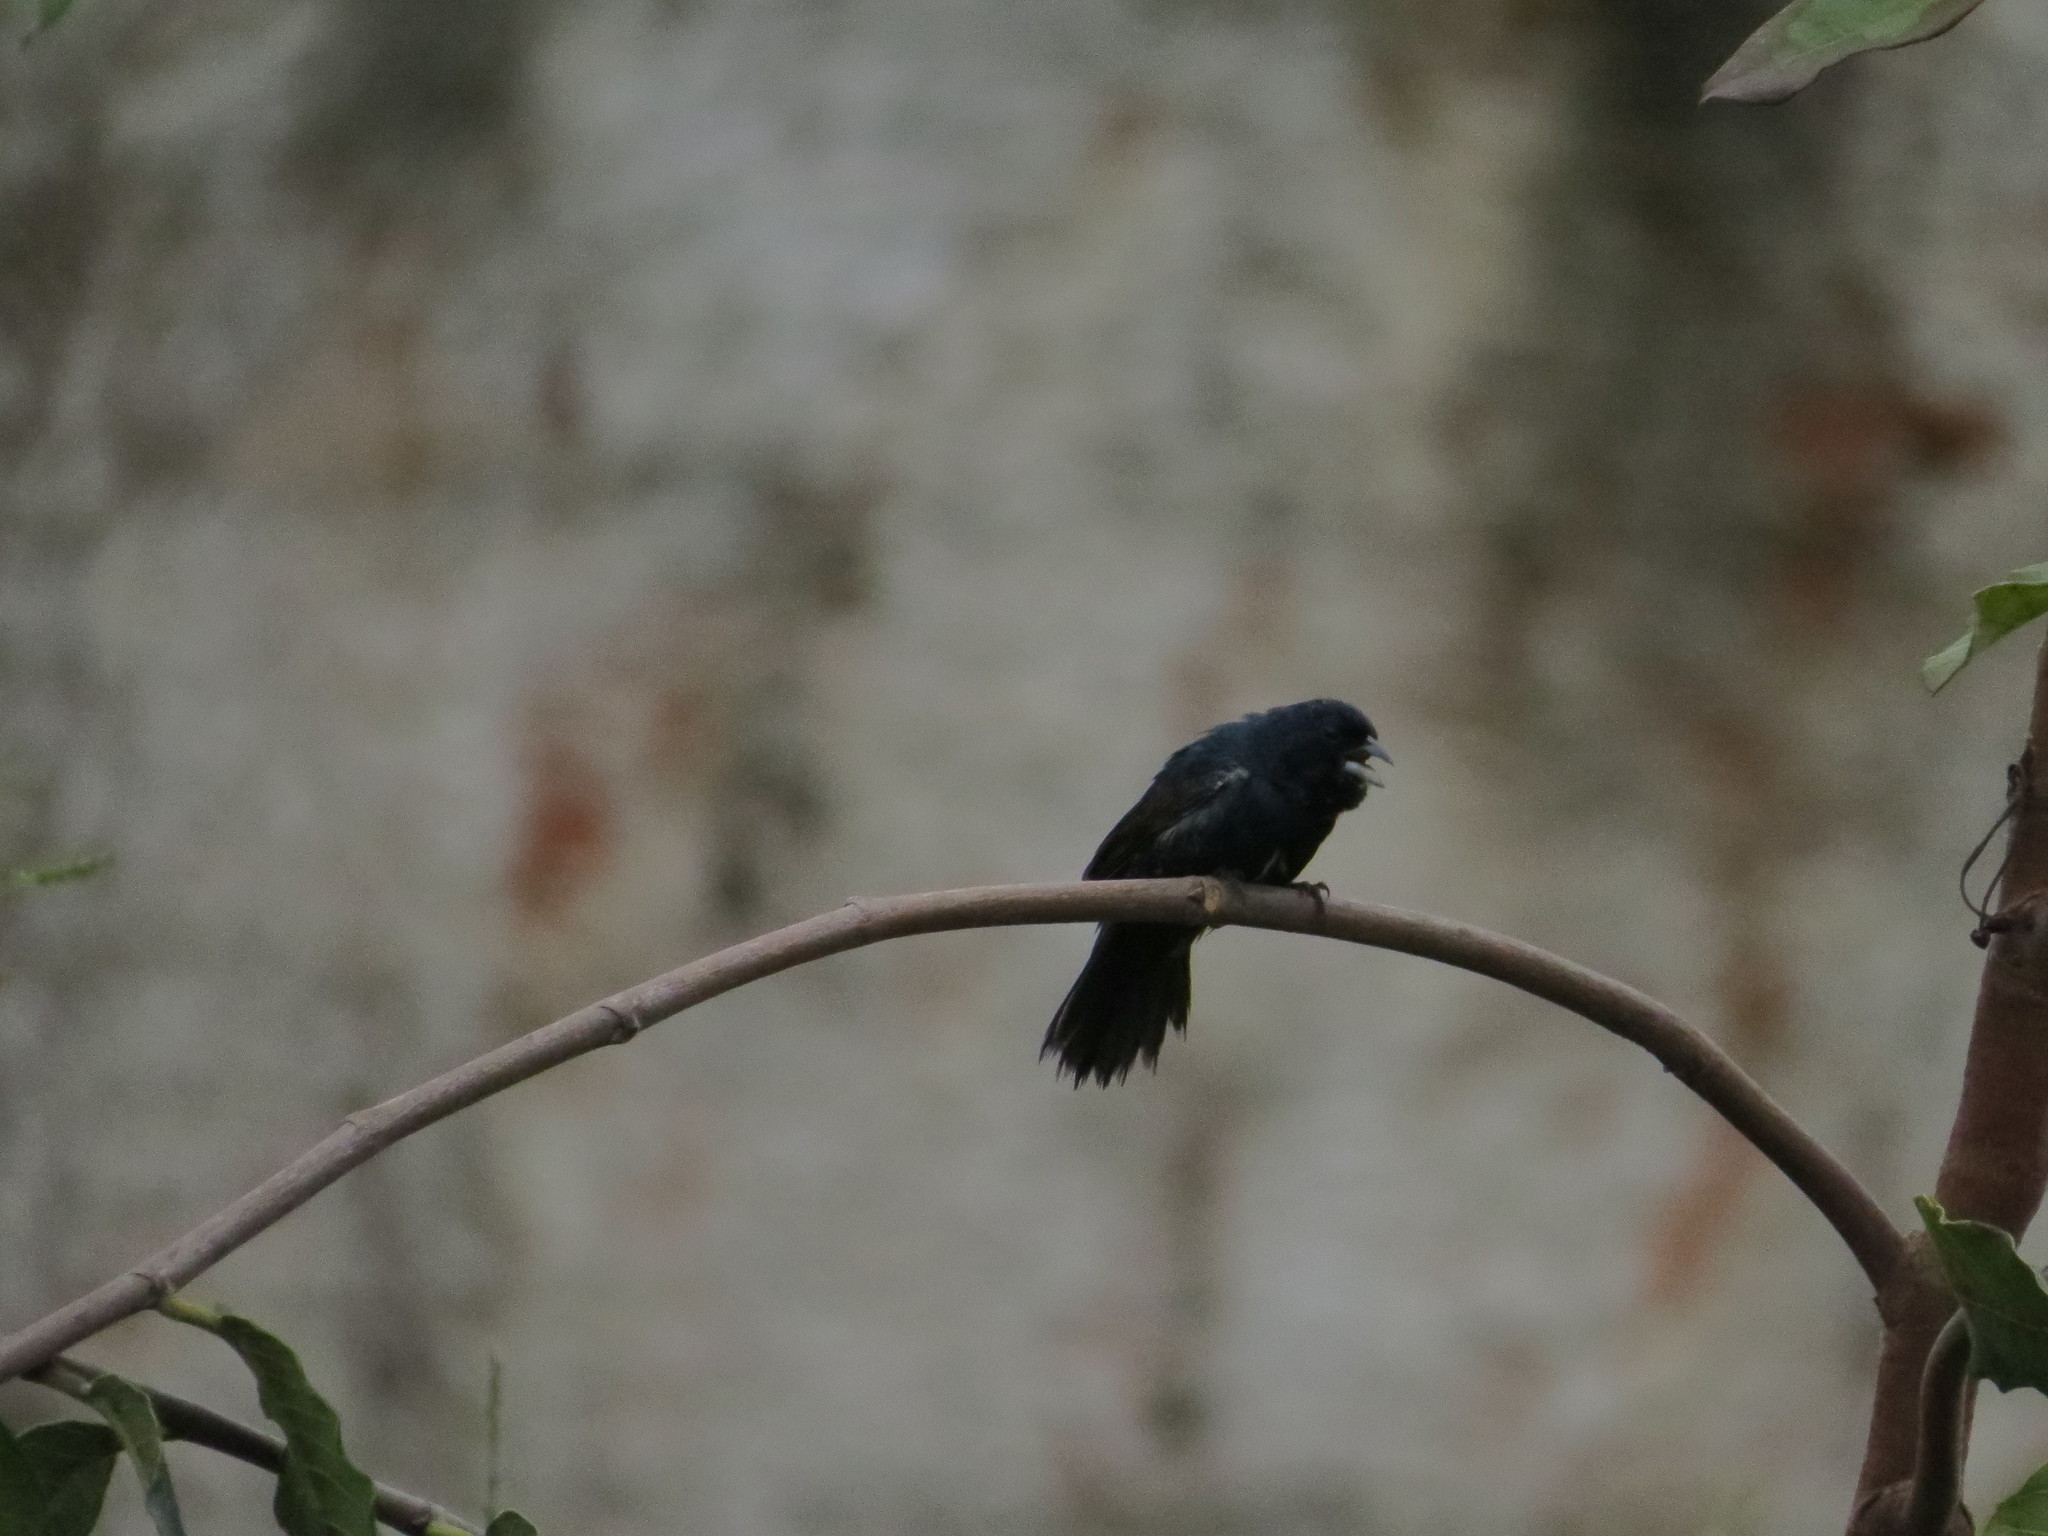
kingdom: Animalia
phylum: Chordata
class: Aves
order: Passeriformes
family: Thraupidae
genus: Volatinia
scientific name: Volatinia jacarina
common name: Blue-black grassquit
